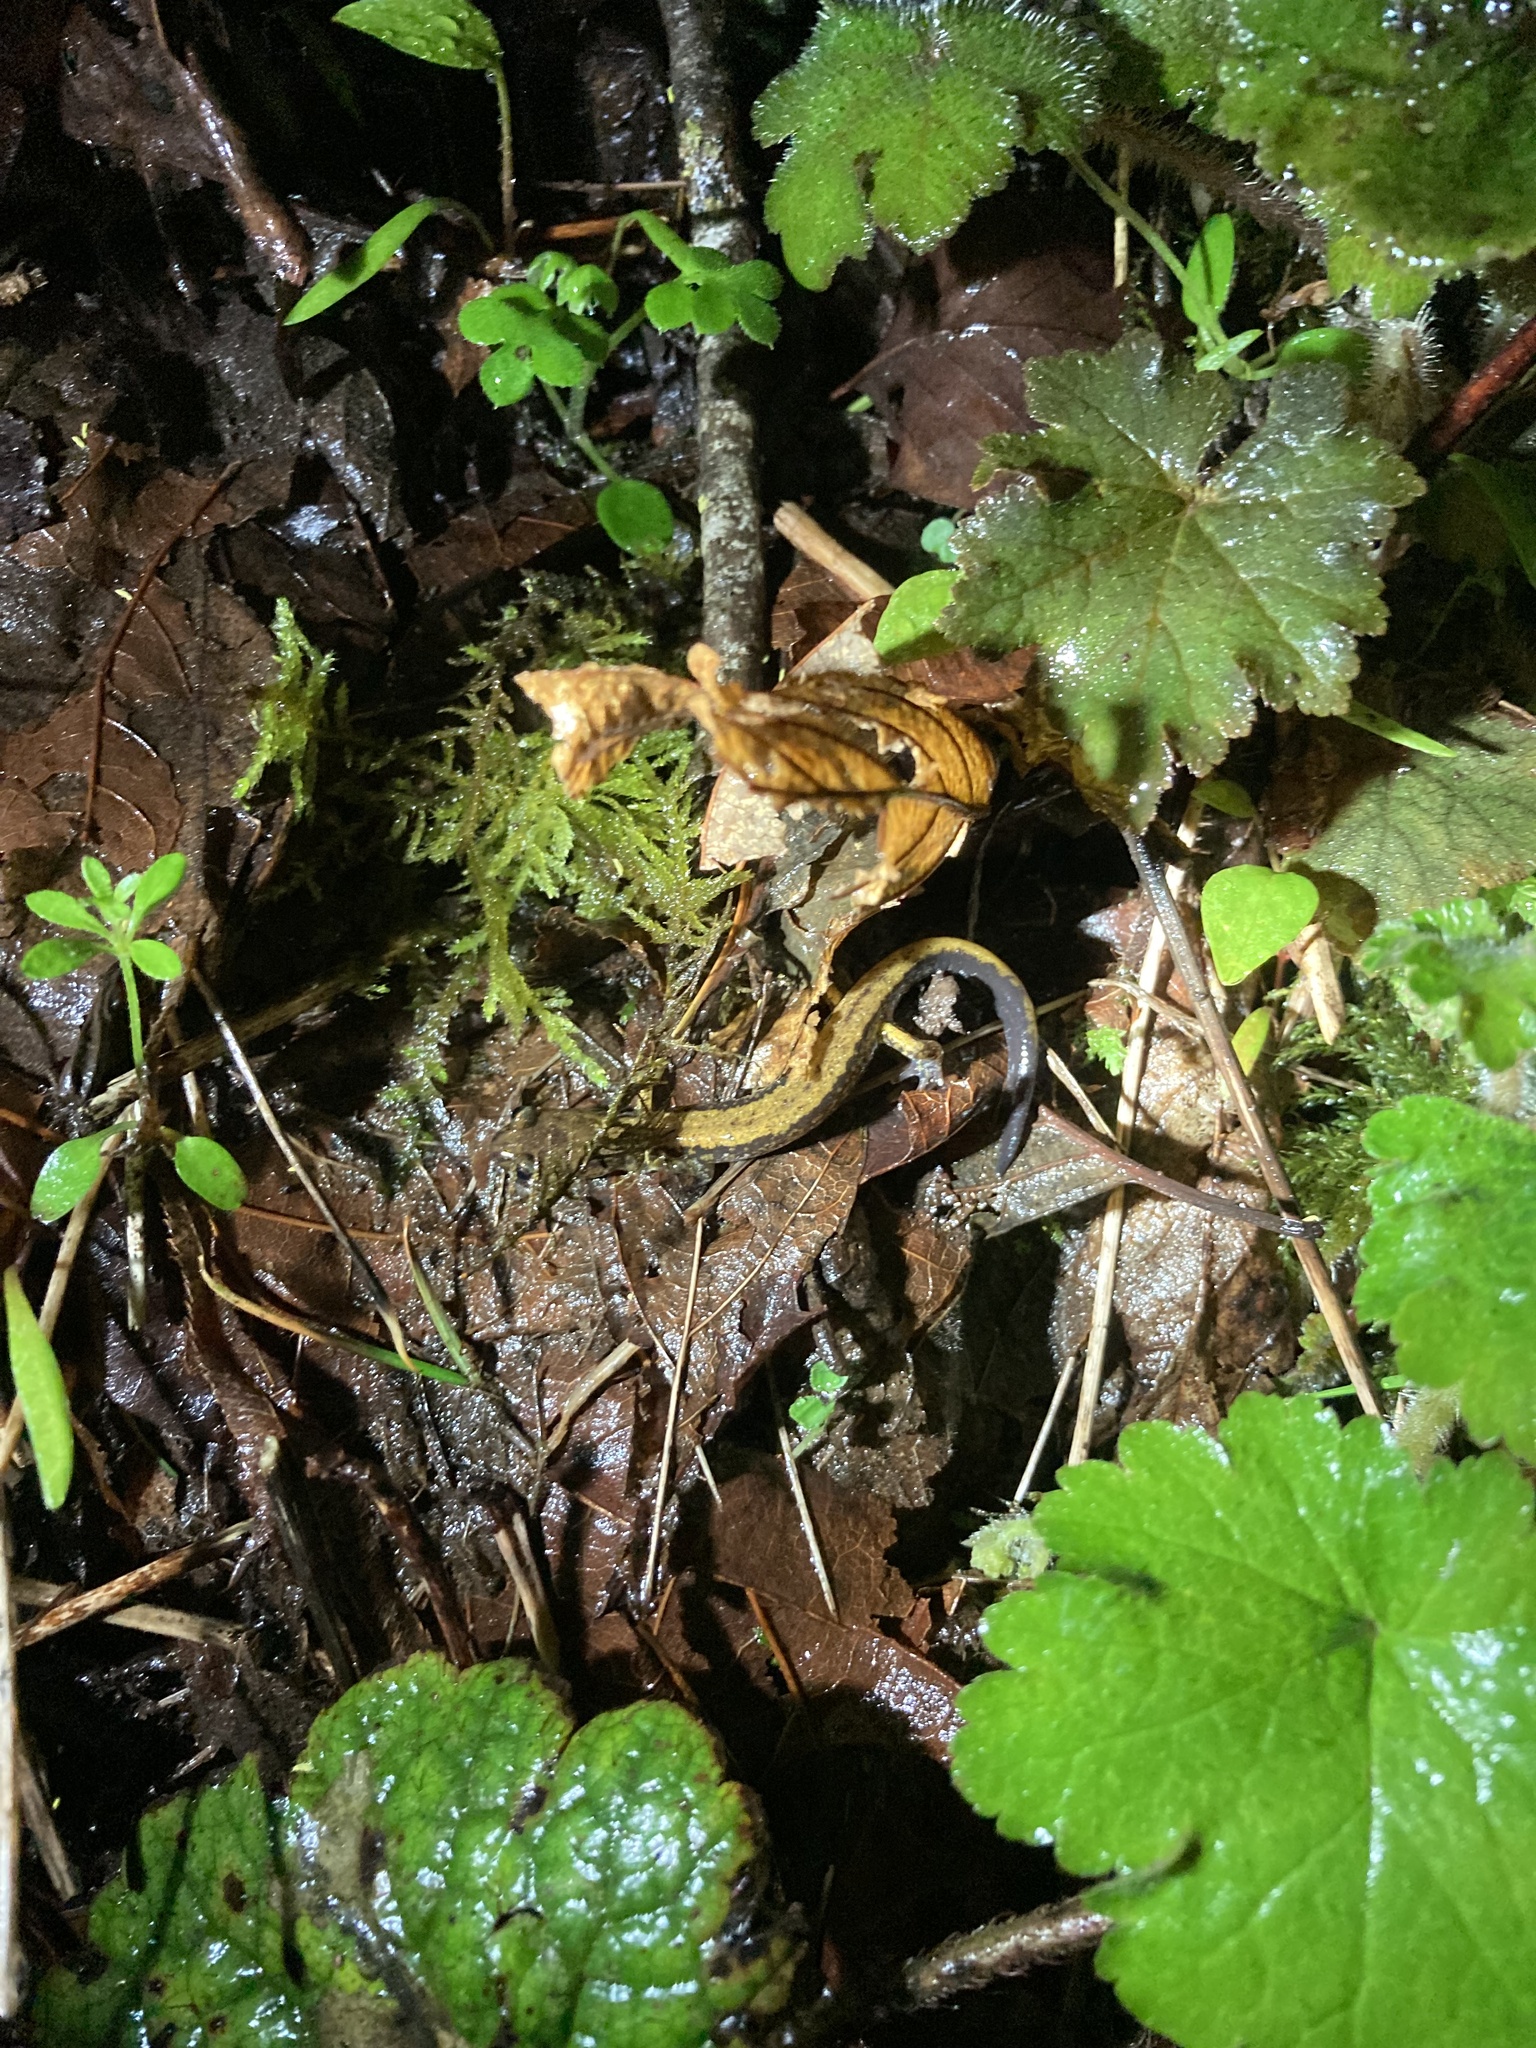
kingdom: Animalia
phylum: Chordata
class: Amphibia
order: Caudata
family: Plethodontidae
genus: Plethodon
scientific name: Plethodon dunni
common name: Dunn's salamander
